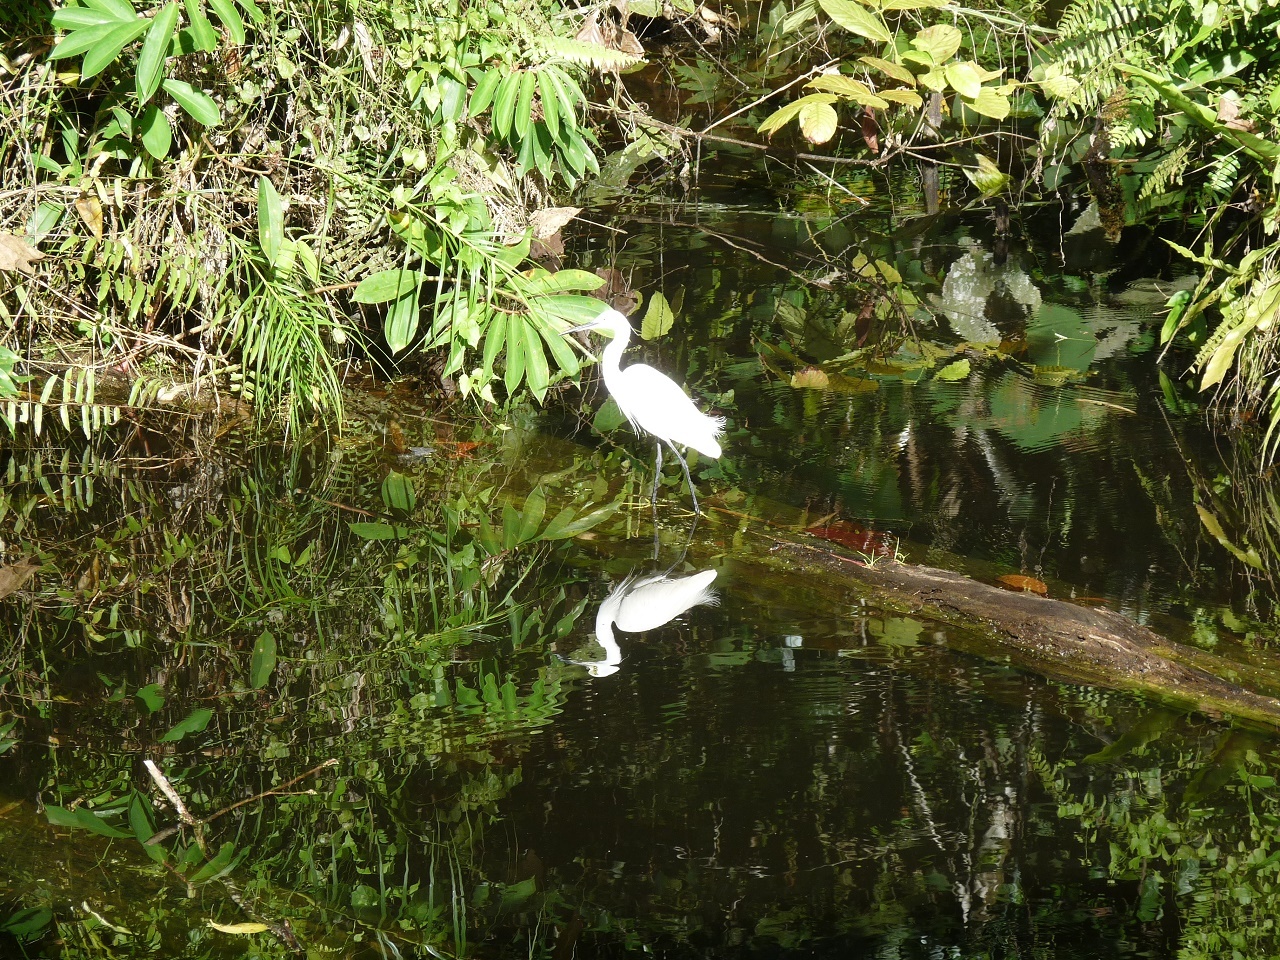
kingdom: Animalia
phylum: Chordata
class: Aves
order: Pelecaniformes
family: Ardeidae
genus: Egretta
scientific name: Egretta garzetta
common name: Little egret
